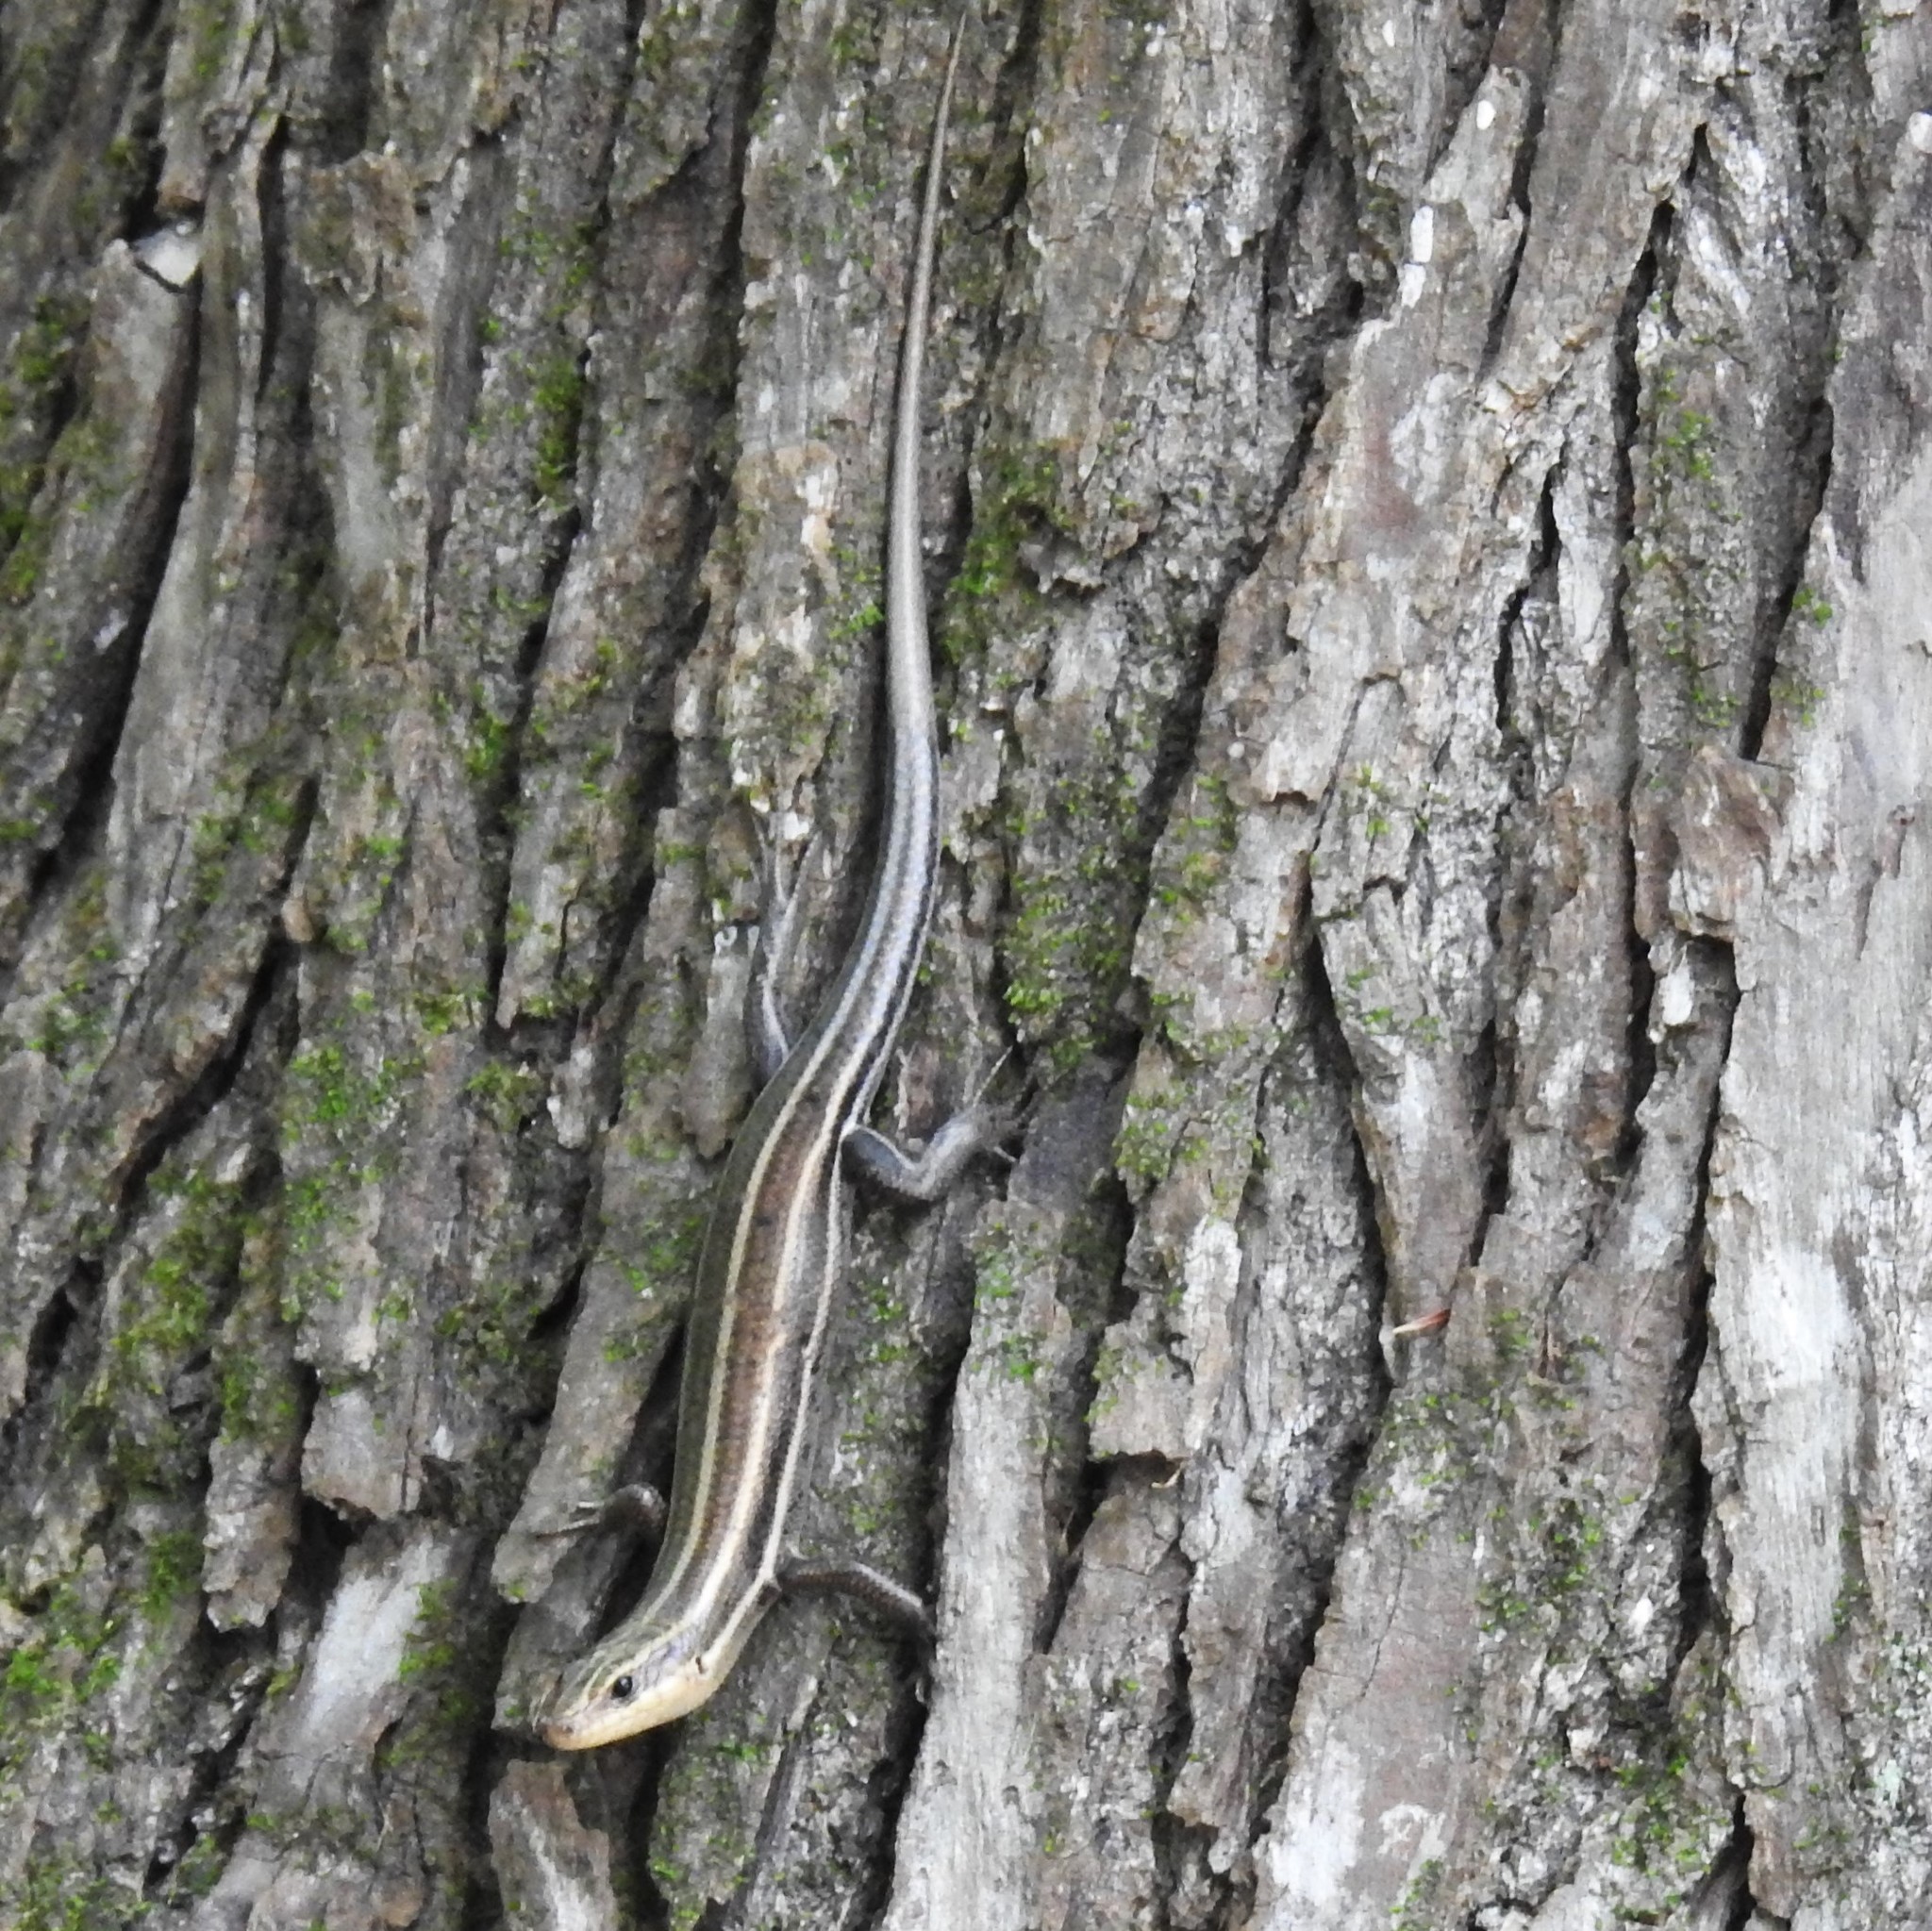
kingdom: Animalia
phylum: Chordata
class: Squamata
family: Scincidae
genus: Plestiodon
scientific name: Plestiodon fasciatus
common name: Five-lined skink
